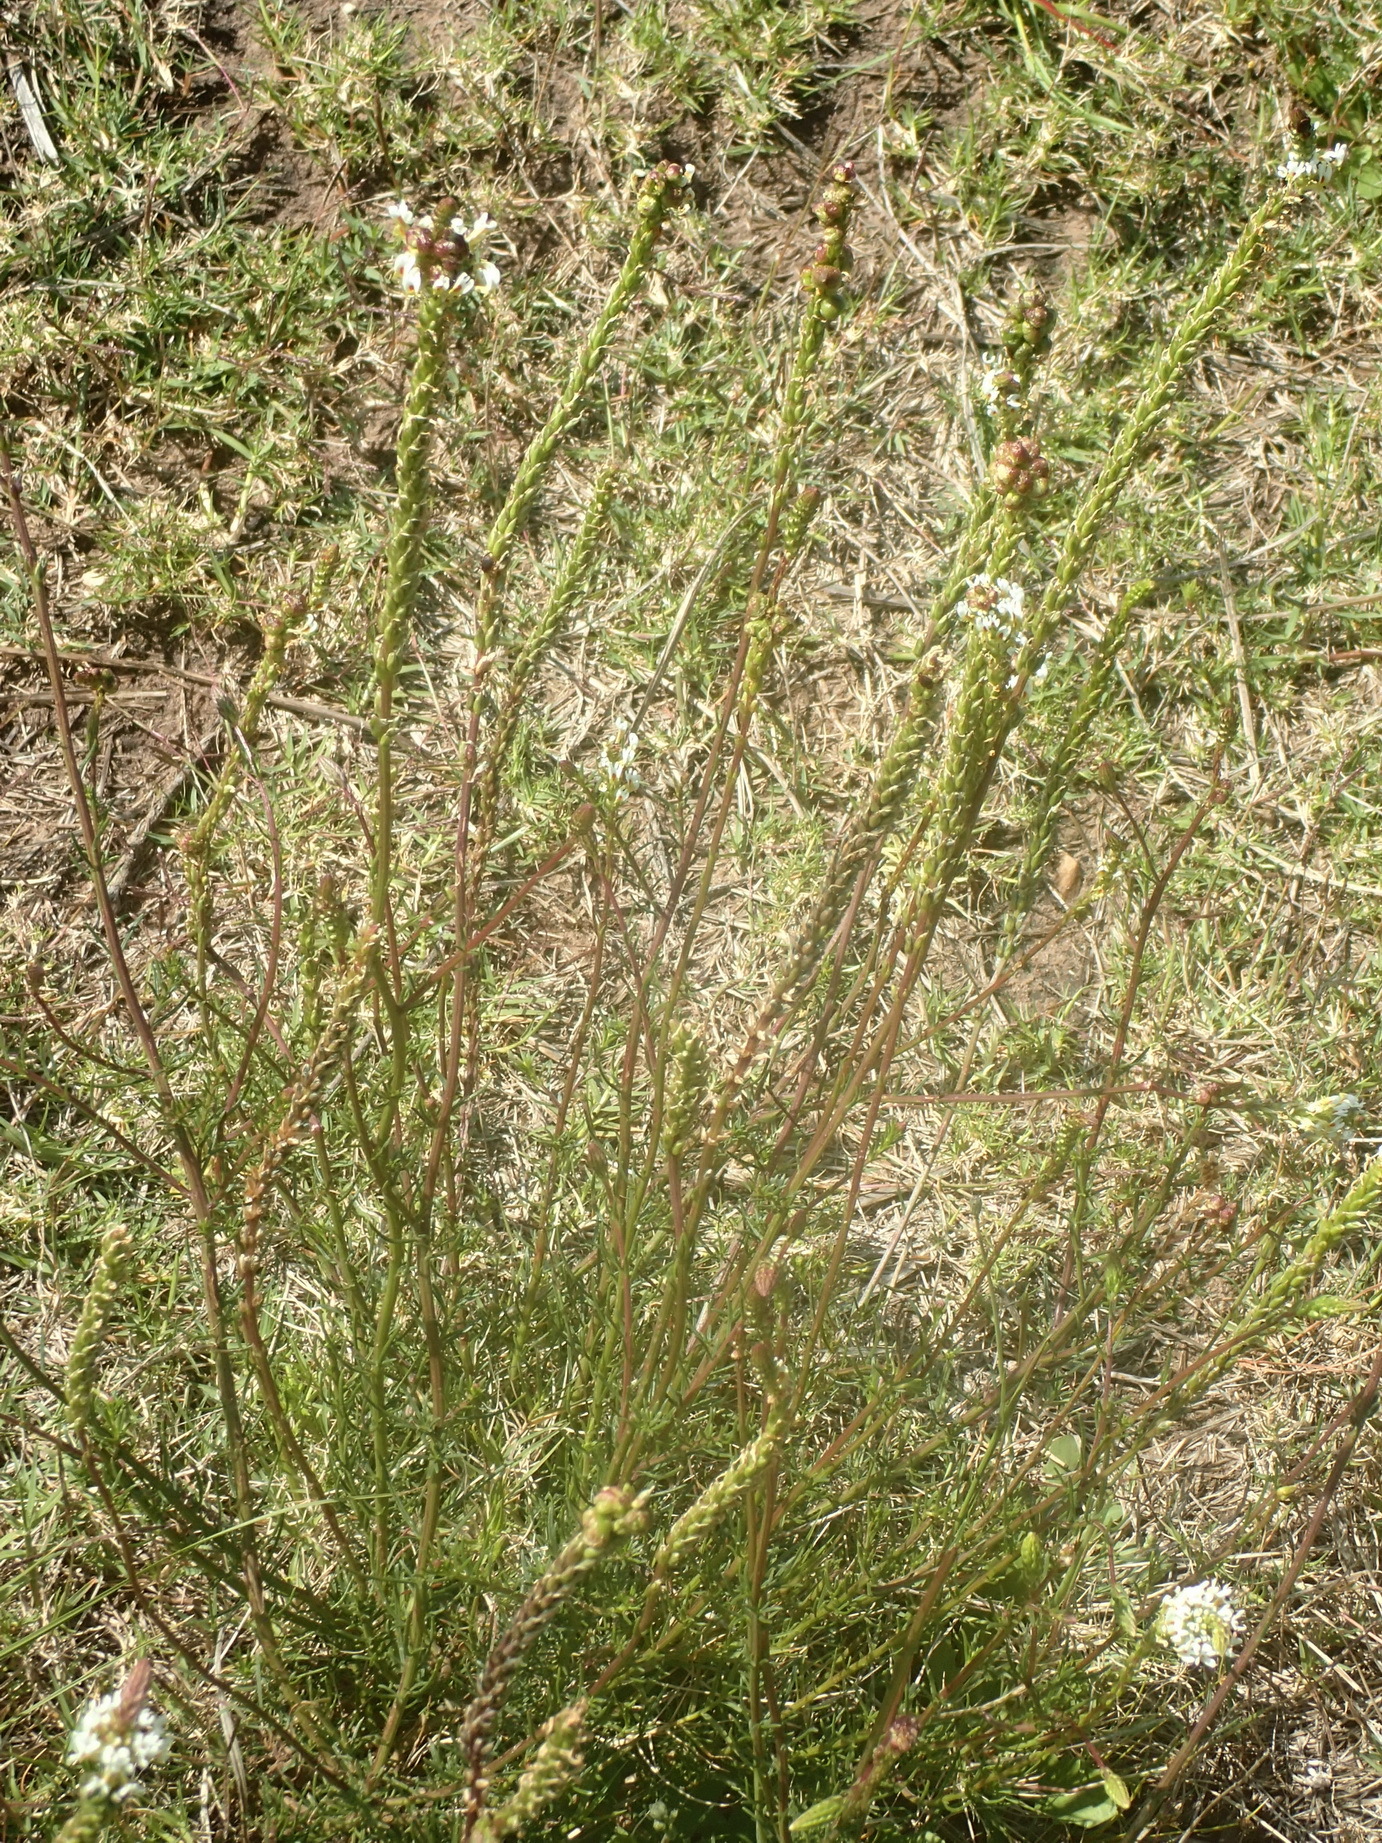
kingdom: Plantae
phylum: Tracheophyta
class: Magnoliopsida
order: Lamiales
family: Scrophulariaceae
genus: Hebenstretia
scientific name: Hebenstretia integrifolia
